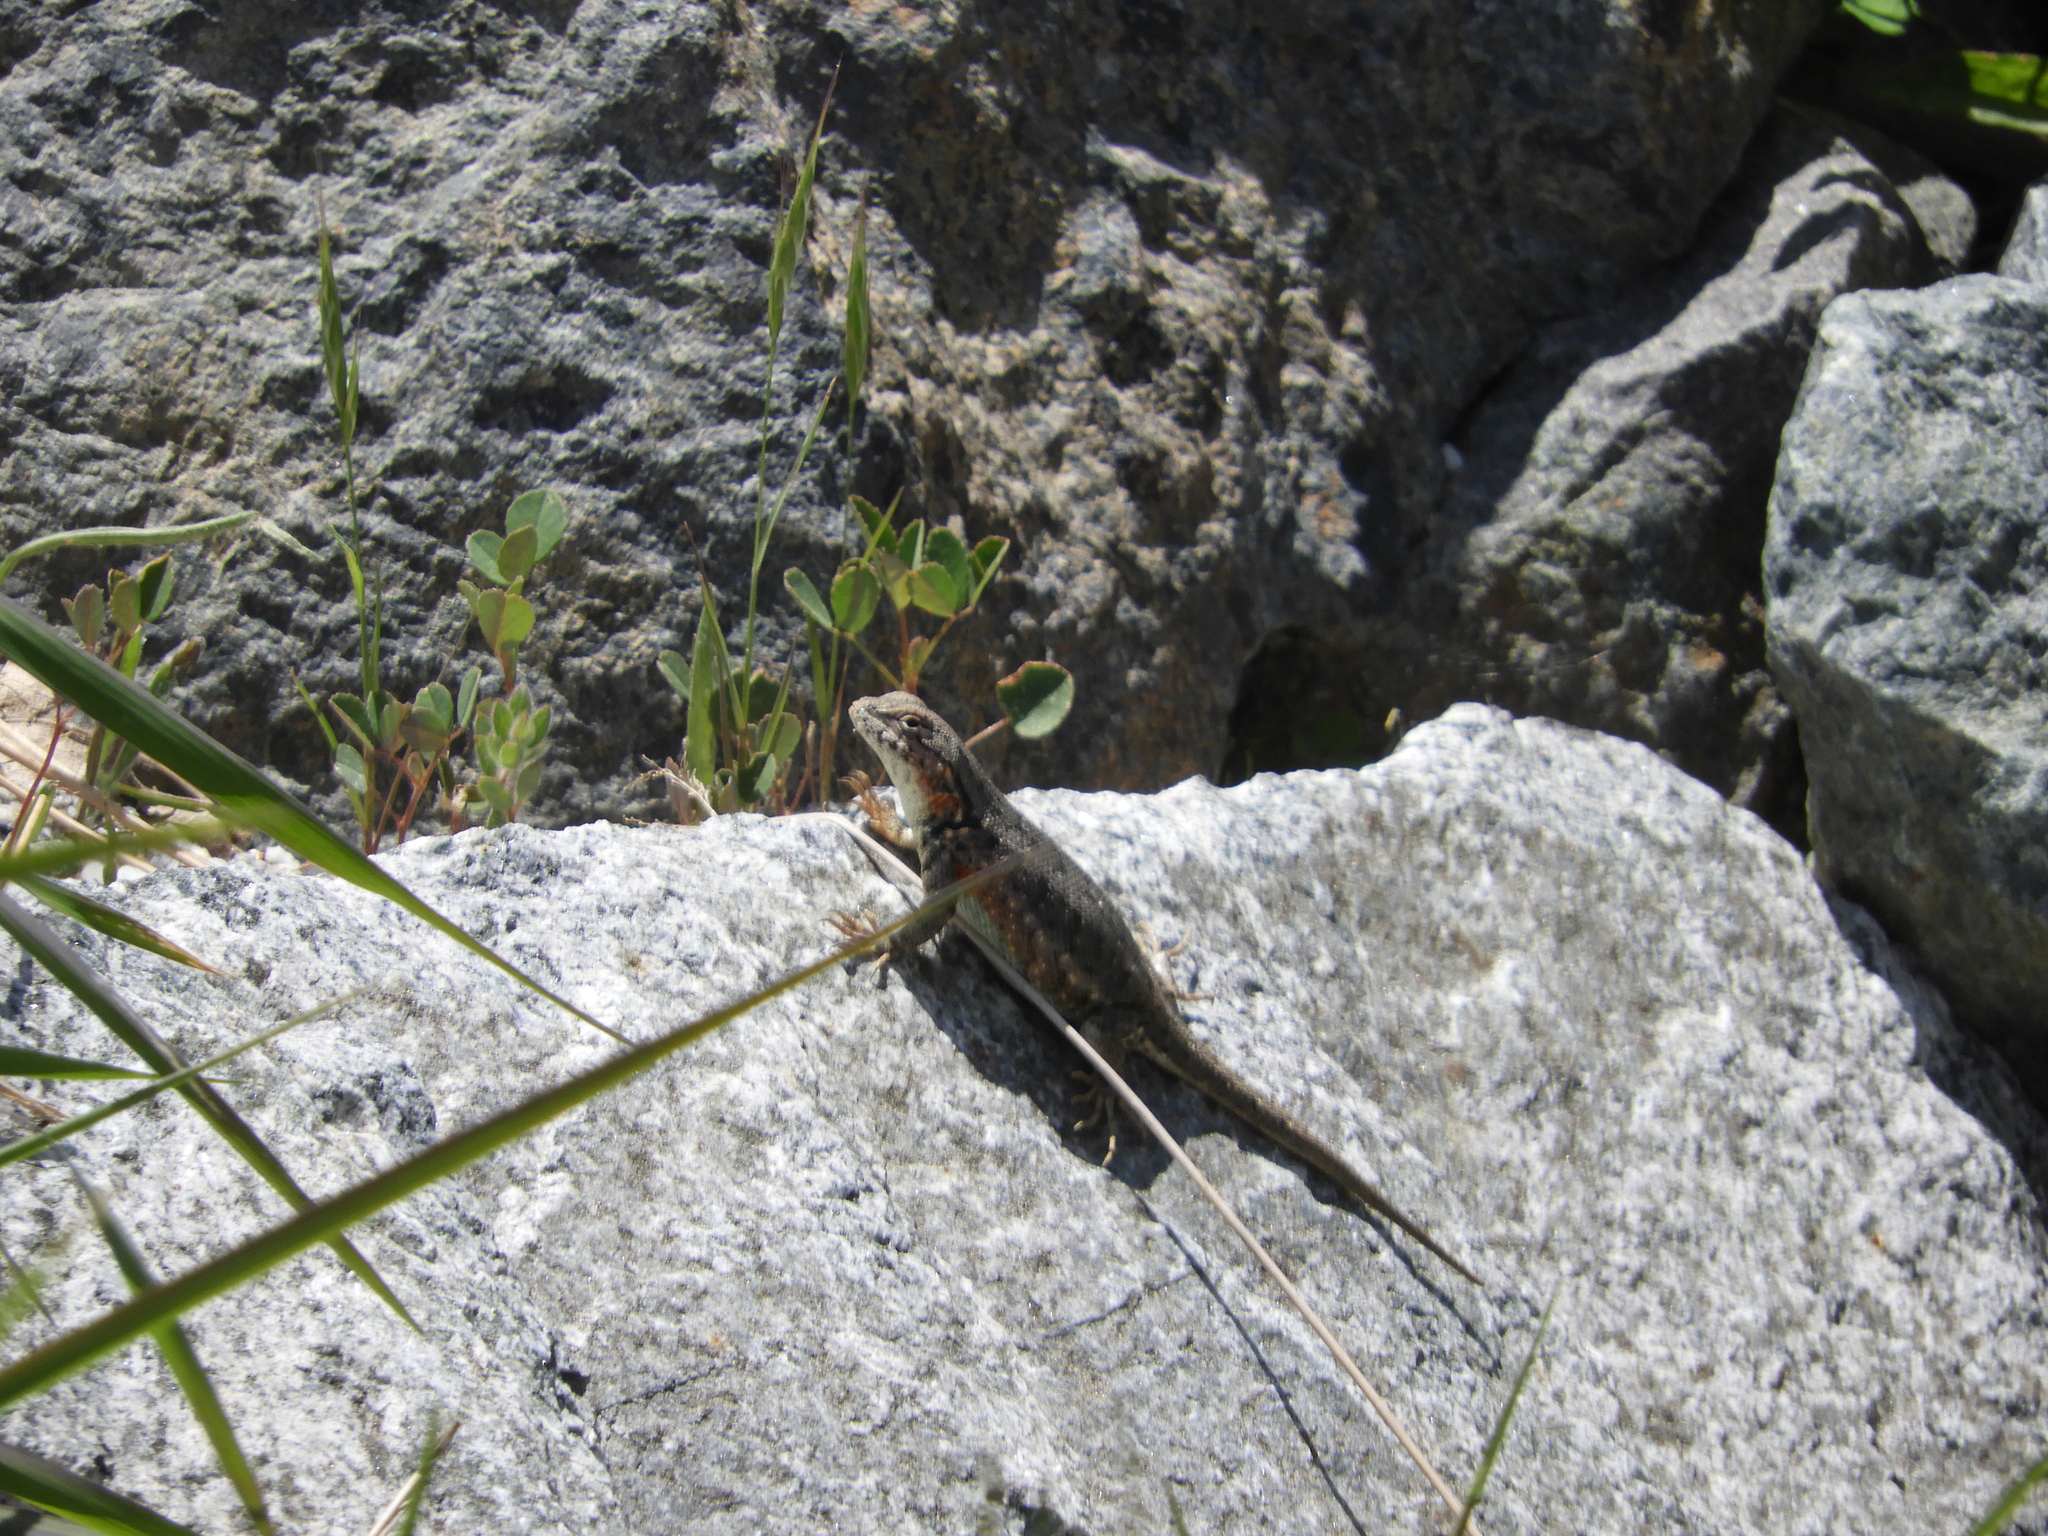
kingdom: Animalia
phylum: Chordata
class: Squamata
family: Phrynosomatidae
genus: Sceloporus
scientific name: Sceloporus graciosus
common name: Sagebrush lizard
